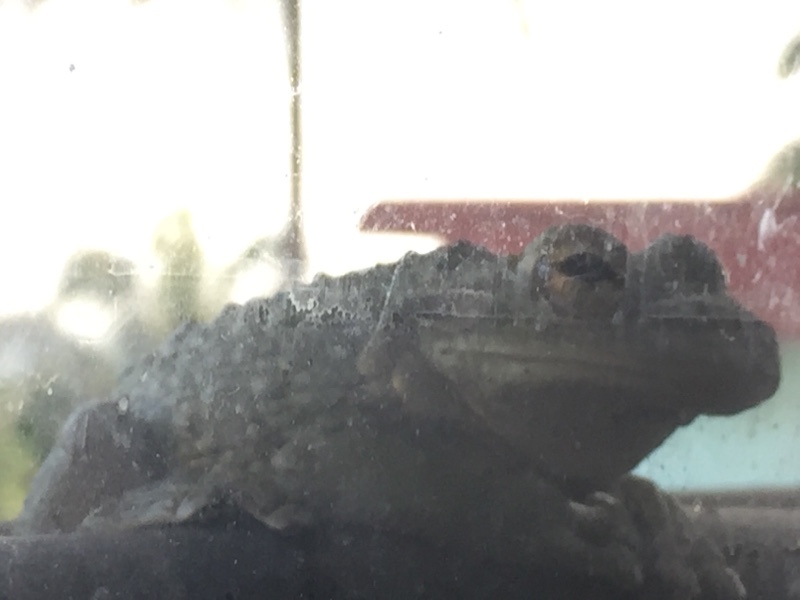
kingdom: Animalia
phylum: Chordata
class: Amphibia
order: Anura
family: Hylidae
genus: Osteopilus
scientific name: Osteopilus septentrionalis
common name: Cuban treefrog
